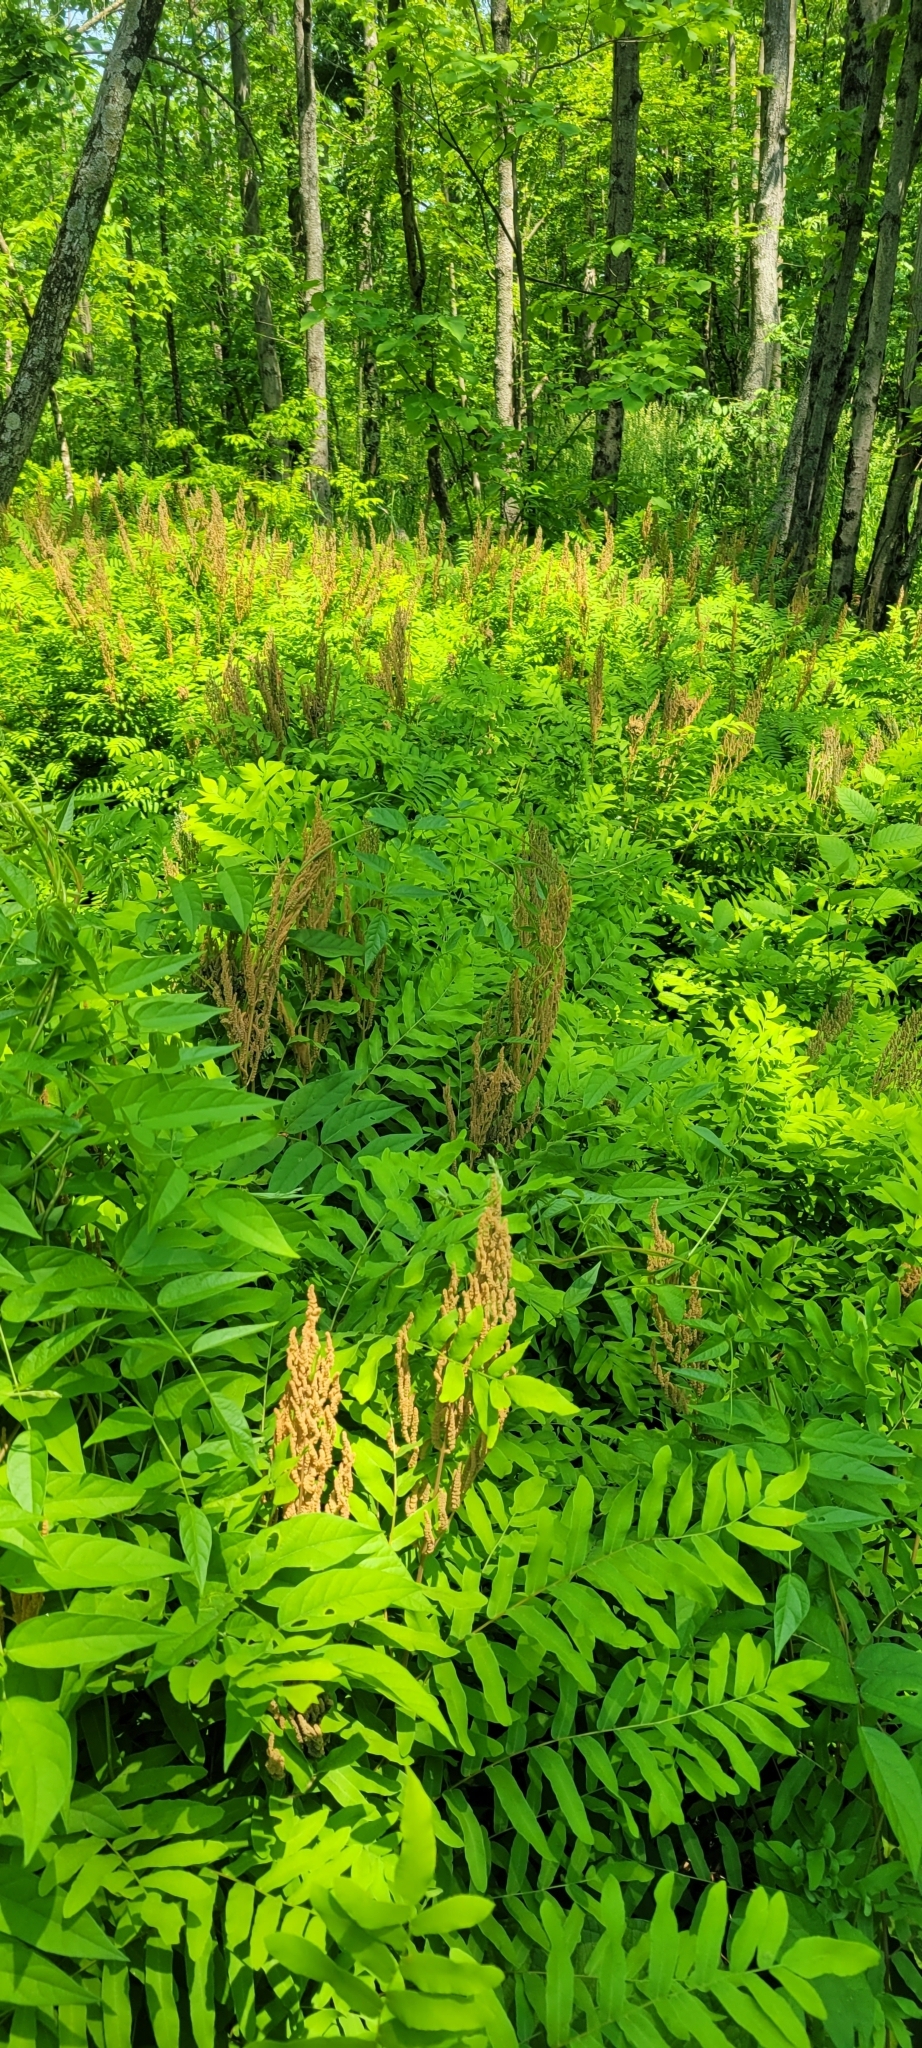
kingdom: Plantae
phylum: Tracheophyta
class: Polypodiopsida
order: Osmundales
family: Osmundaceae
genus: Osmunda
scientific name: Osmunda spectabilis
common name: American royal fern
